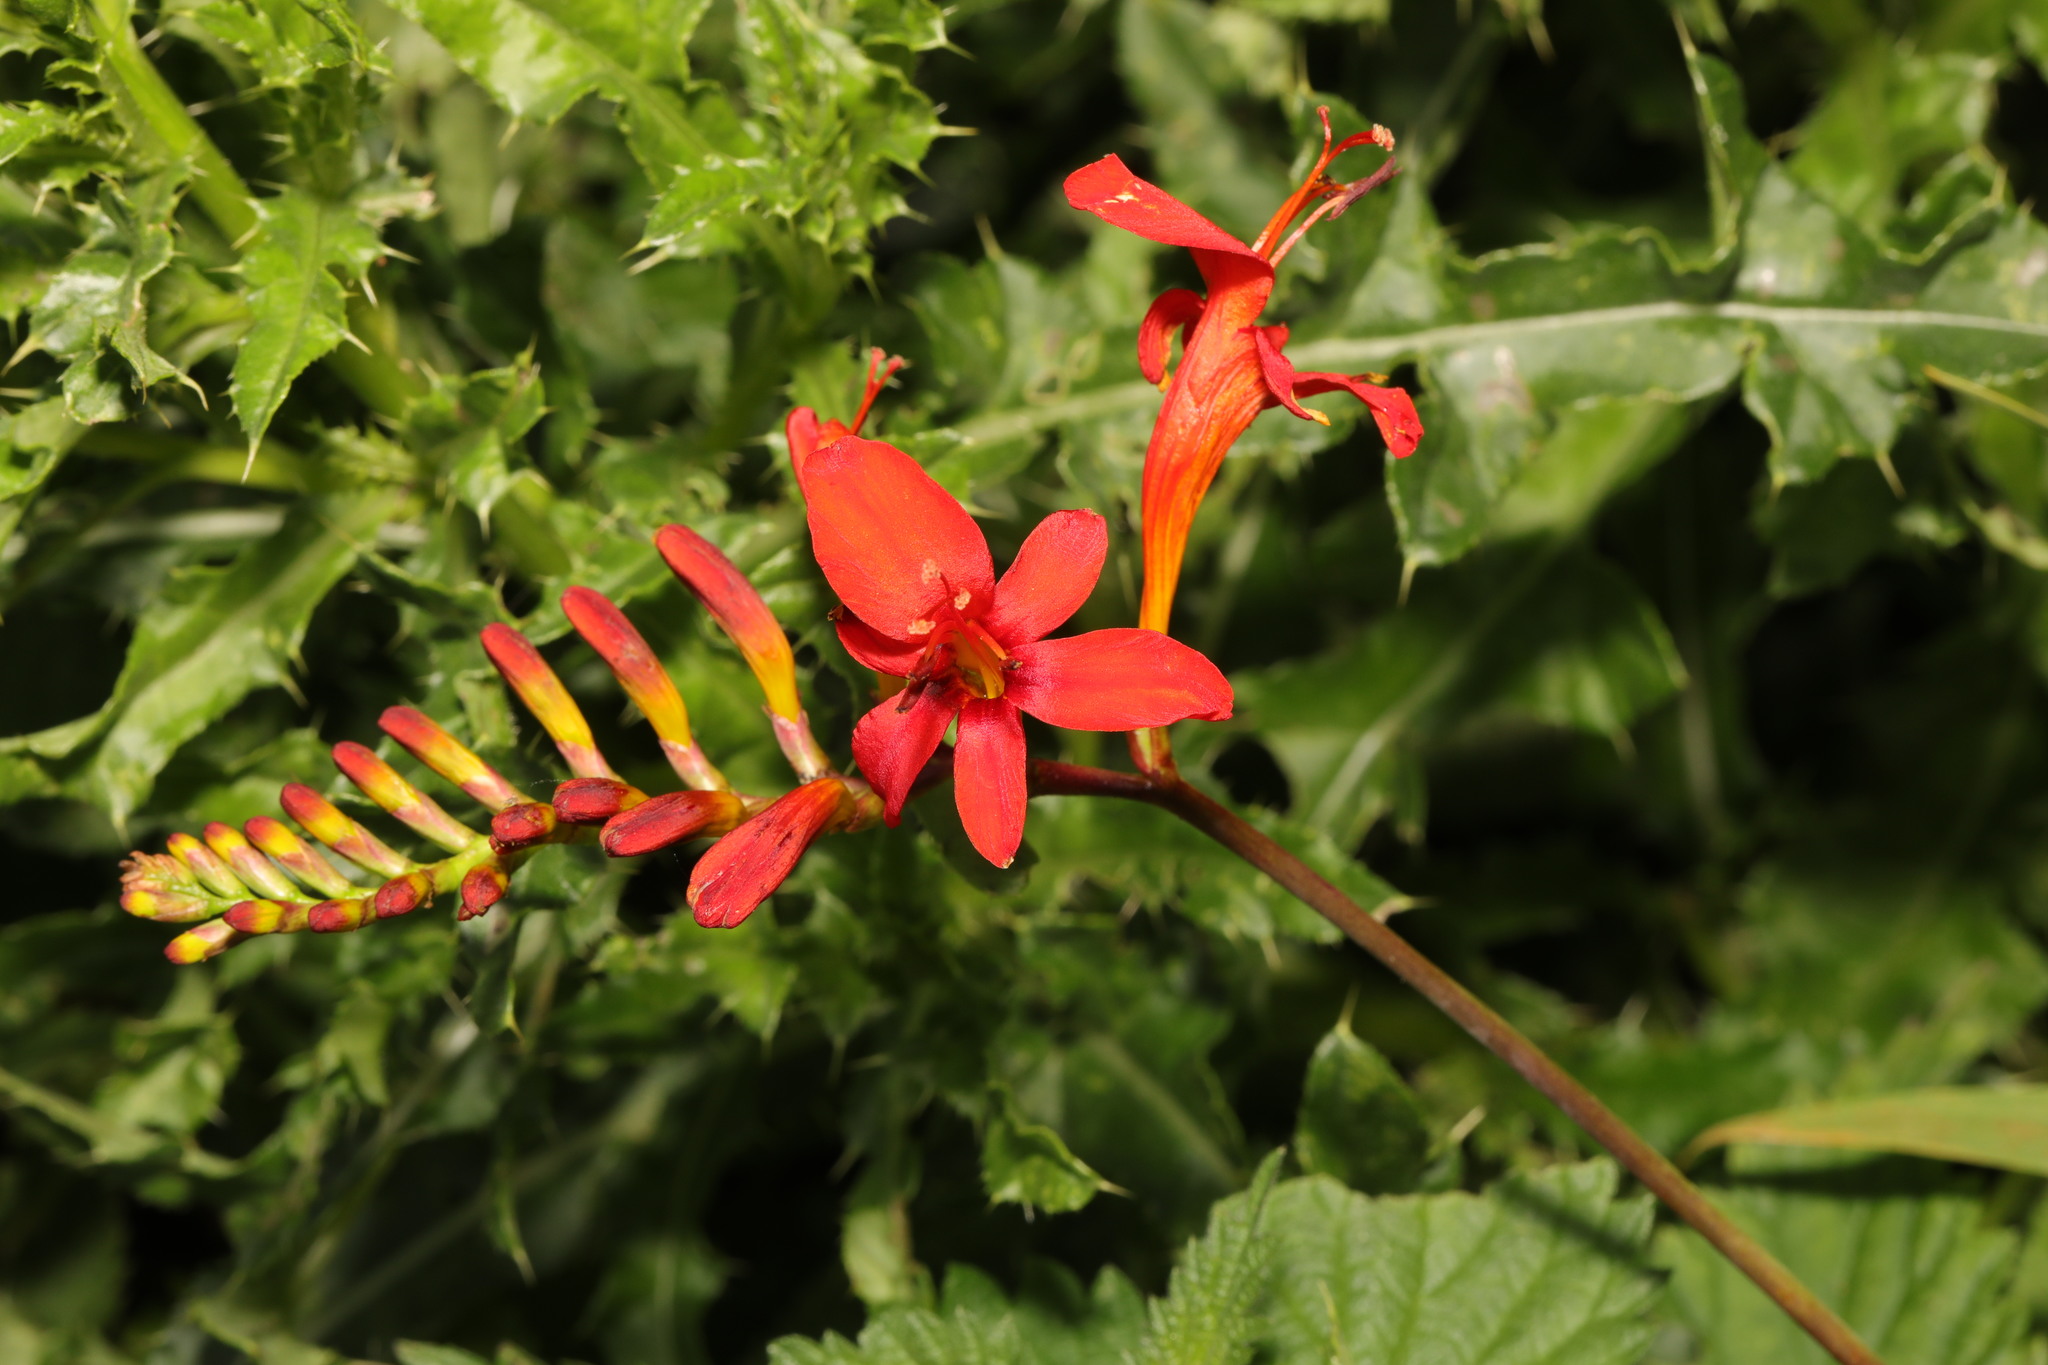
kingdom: Plantae
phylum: Tracheophyta
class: Liliopsida
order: Asparagales
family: Iridaceae
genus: Crocosmia
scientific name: Crocosmia
